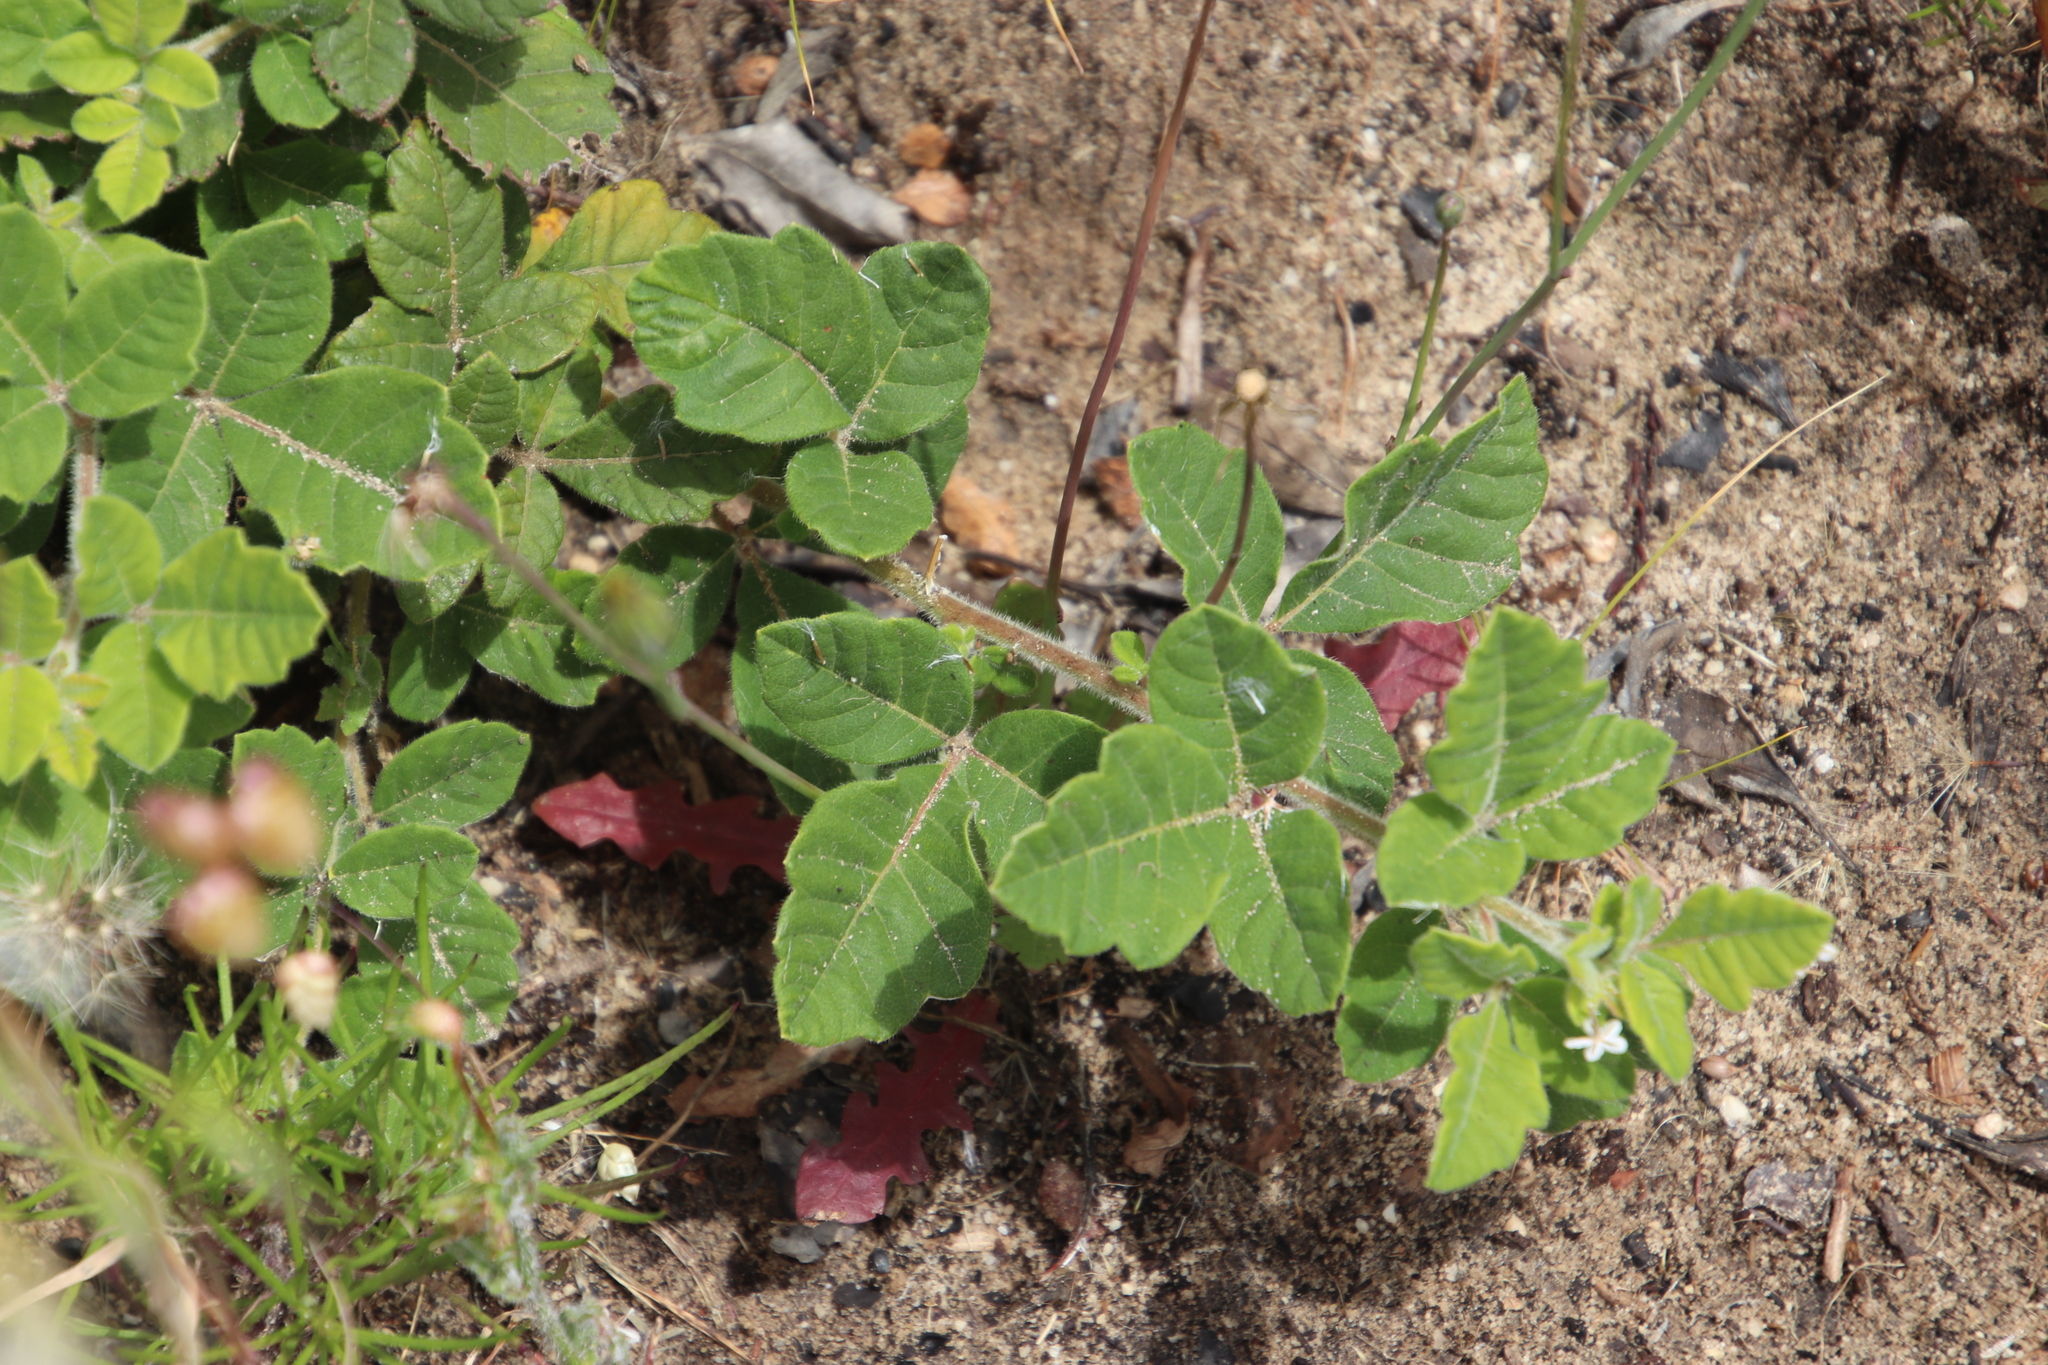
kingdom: Plantae
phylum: Tracheophyta
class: Magnoliopsida
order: Sapindales
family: Anacardiaceae
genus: Searsia
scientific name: Searsia tomentosa
